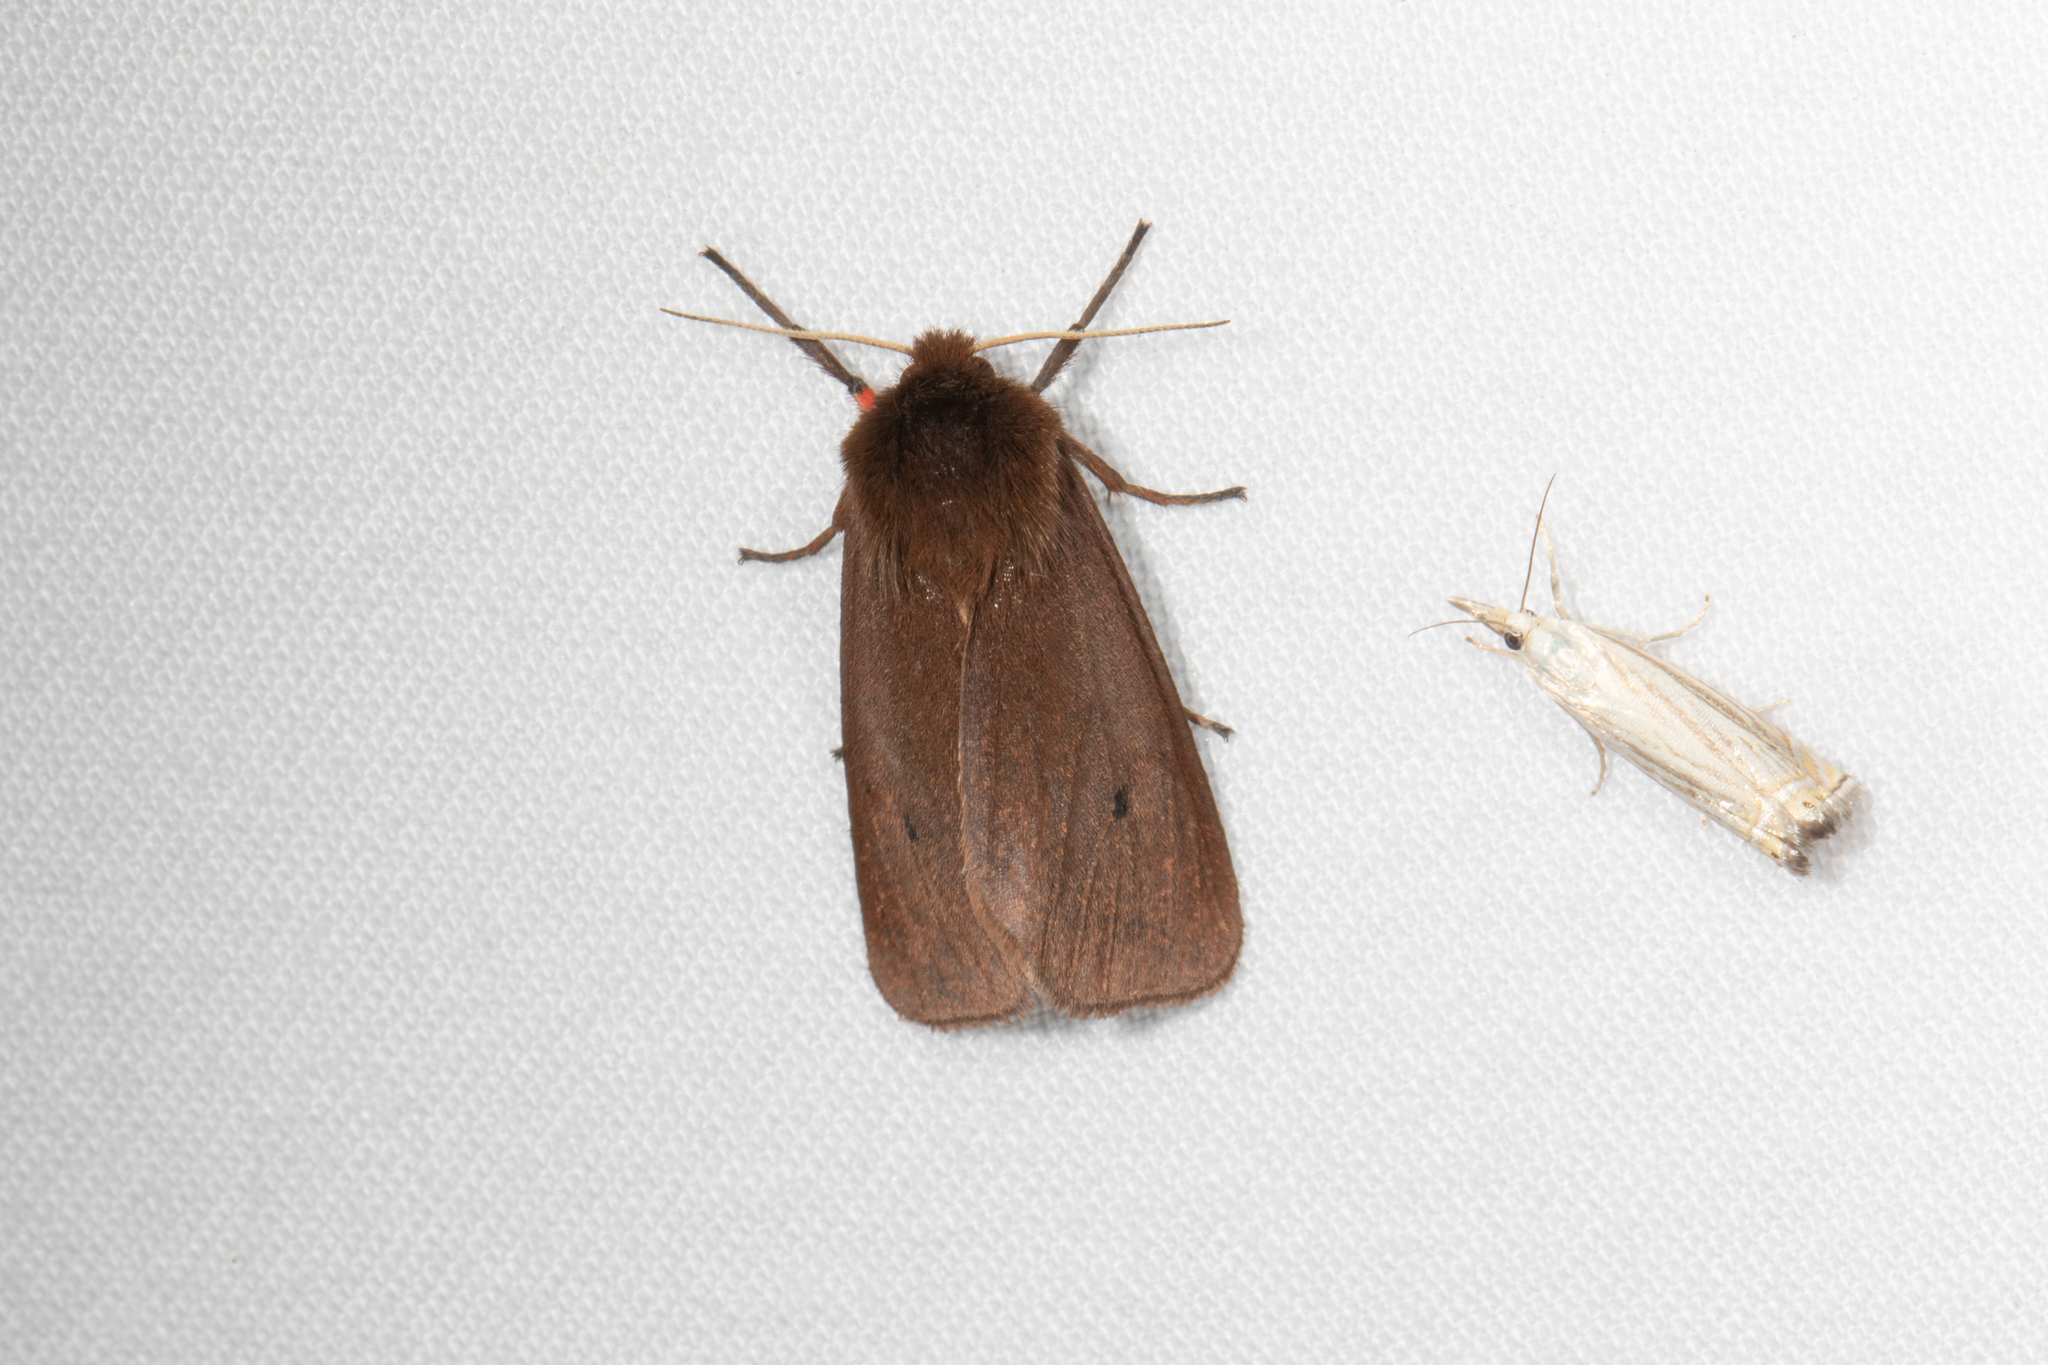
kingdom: Animalia
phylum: Arthropoda
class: Insecta
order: Lepidoptera
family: Erebidae
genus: Phragmatobia
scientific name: Phragmatobia fuliginosa
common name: Ruby tiger
